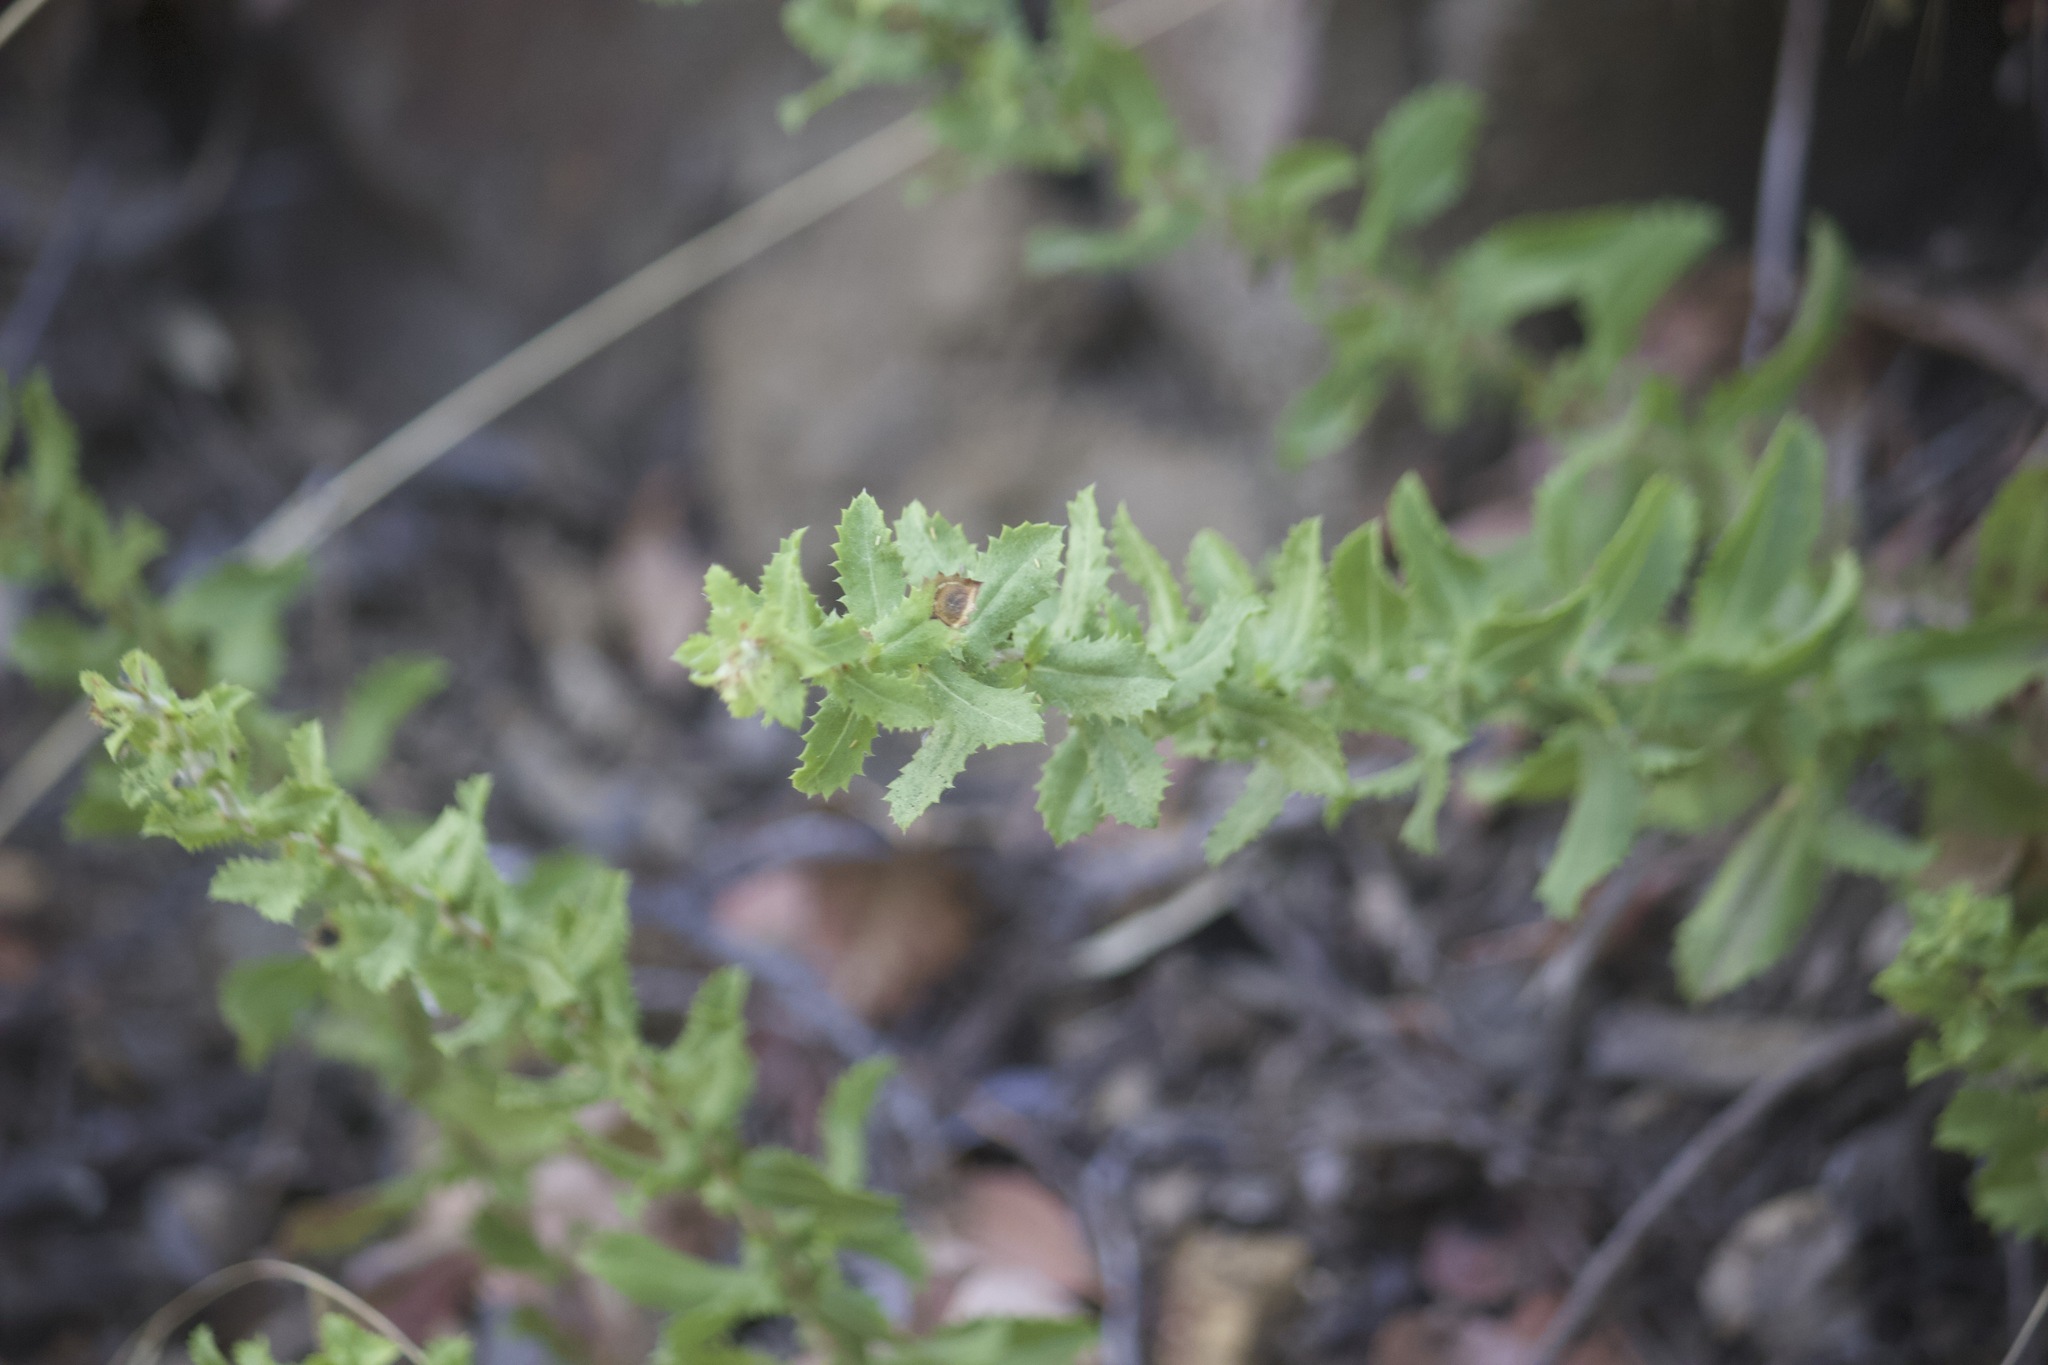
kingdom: Plantae
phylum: Tracheophyta
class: Magnoliopsida
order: Asterales
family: Asteraceae
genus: Hazardia
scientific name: Hazardia squarrosa
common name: Saw-tooth goldenbush
